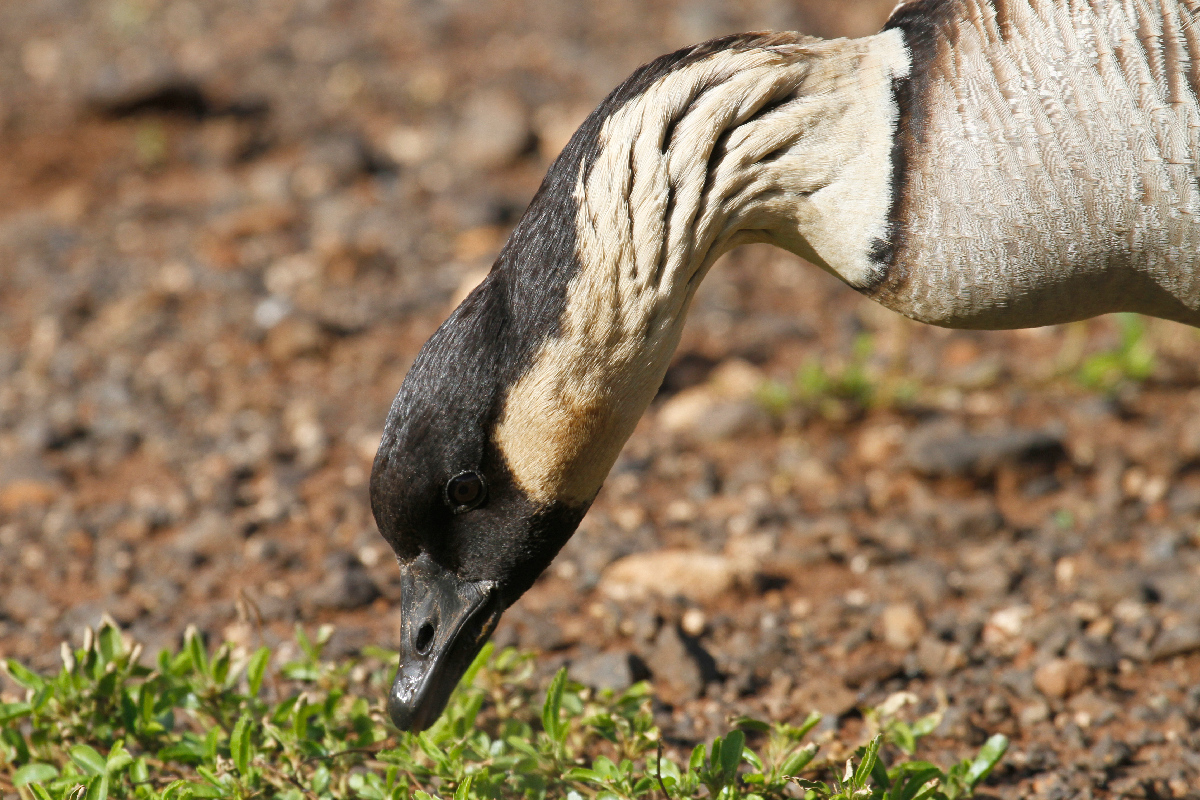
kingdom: Animalia
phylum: Chordata
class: Aves
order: Anseriformes
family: Anatidae
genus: Branta
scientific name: Branta sandvicensis
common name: Nene
